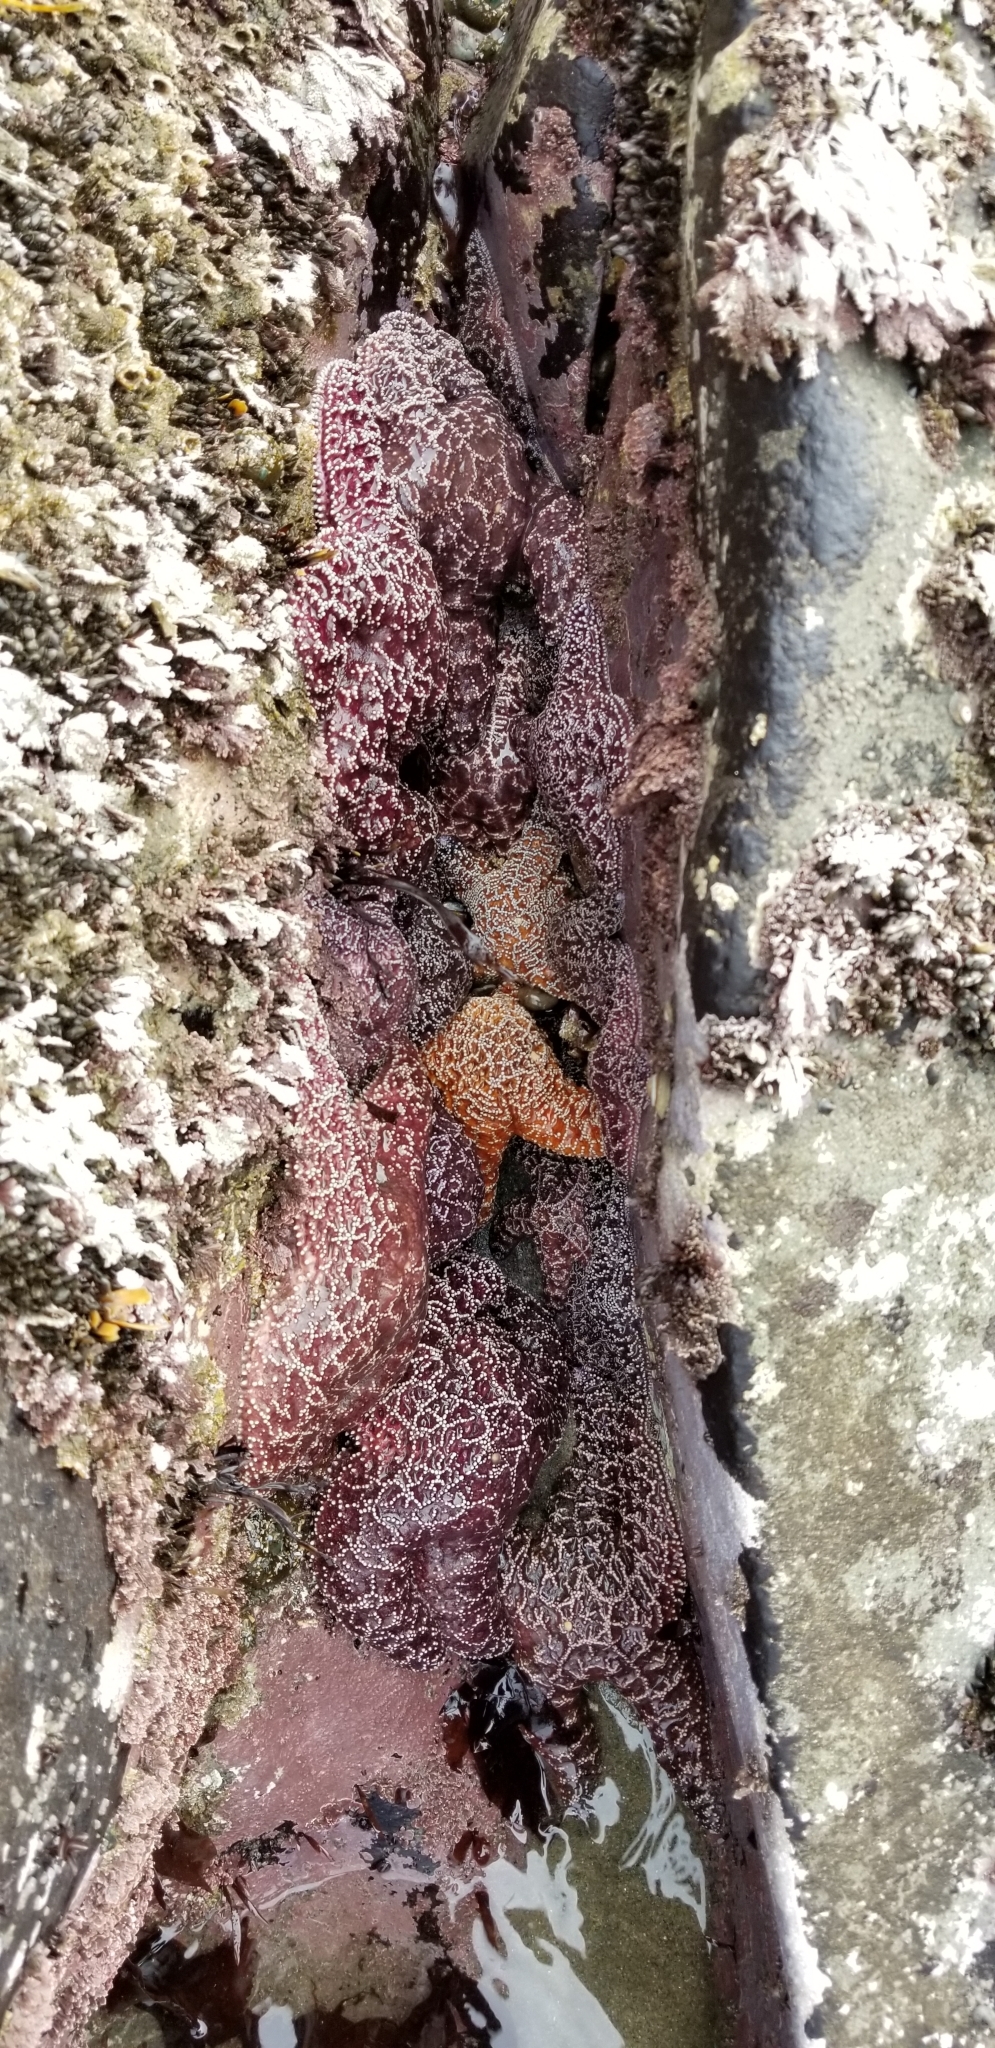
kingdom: Animalia
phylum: Echinodermata
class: Asteroidea
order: Forcipulatida
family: Asteriidae
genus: Pisaster
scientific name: Pisaster ochraceus
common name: Ochre stars
